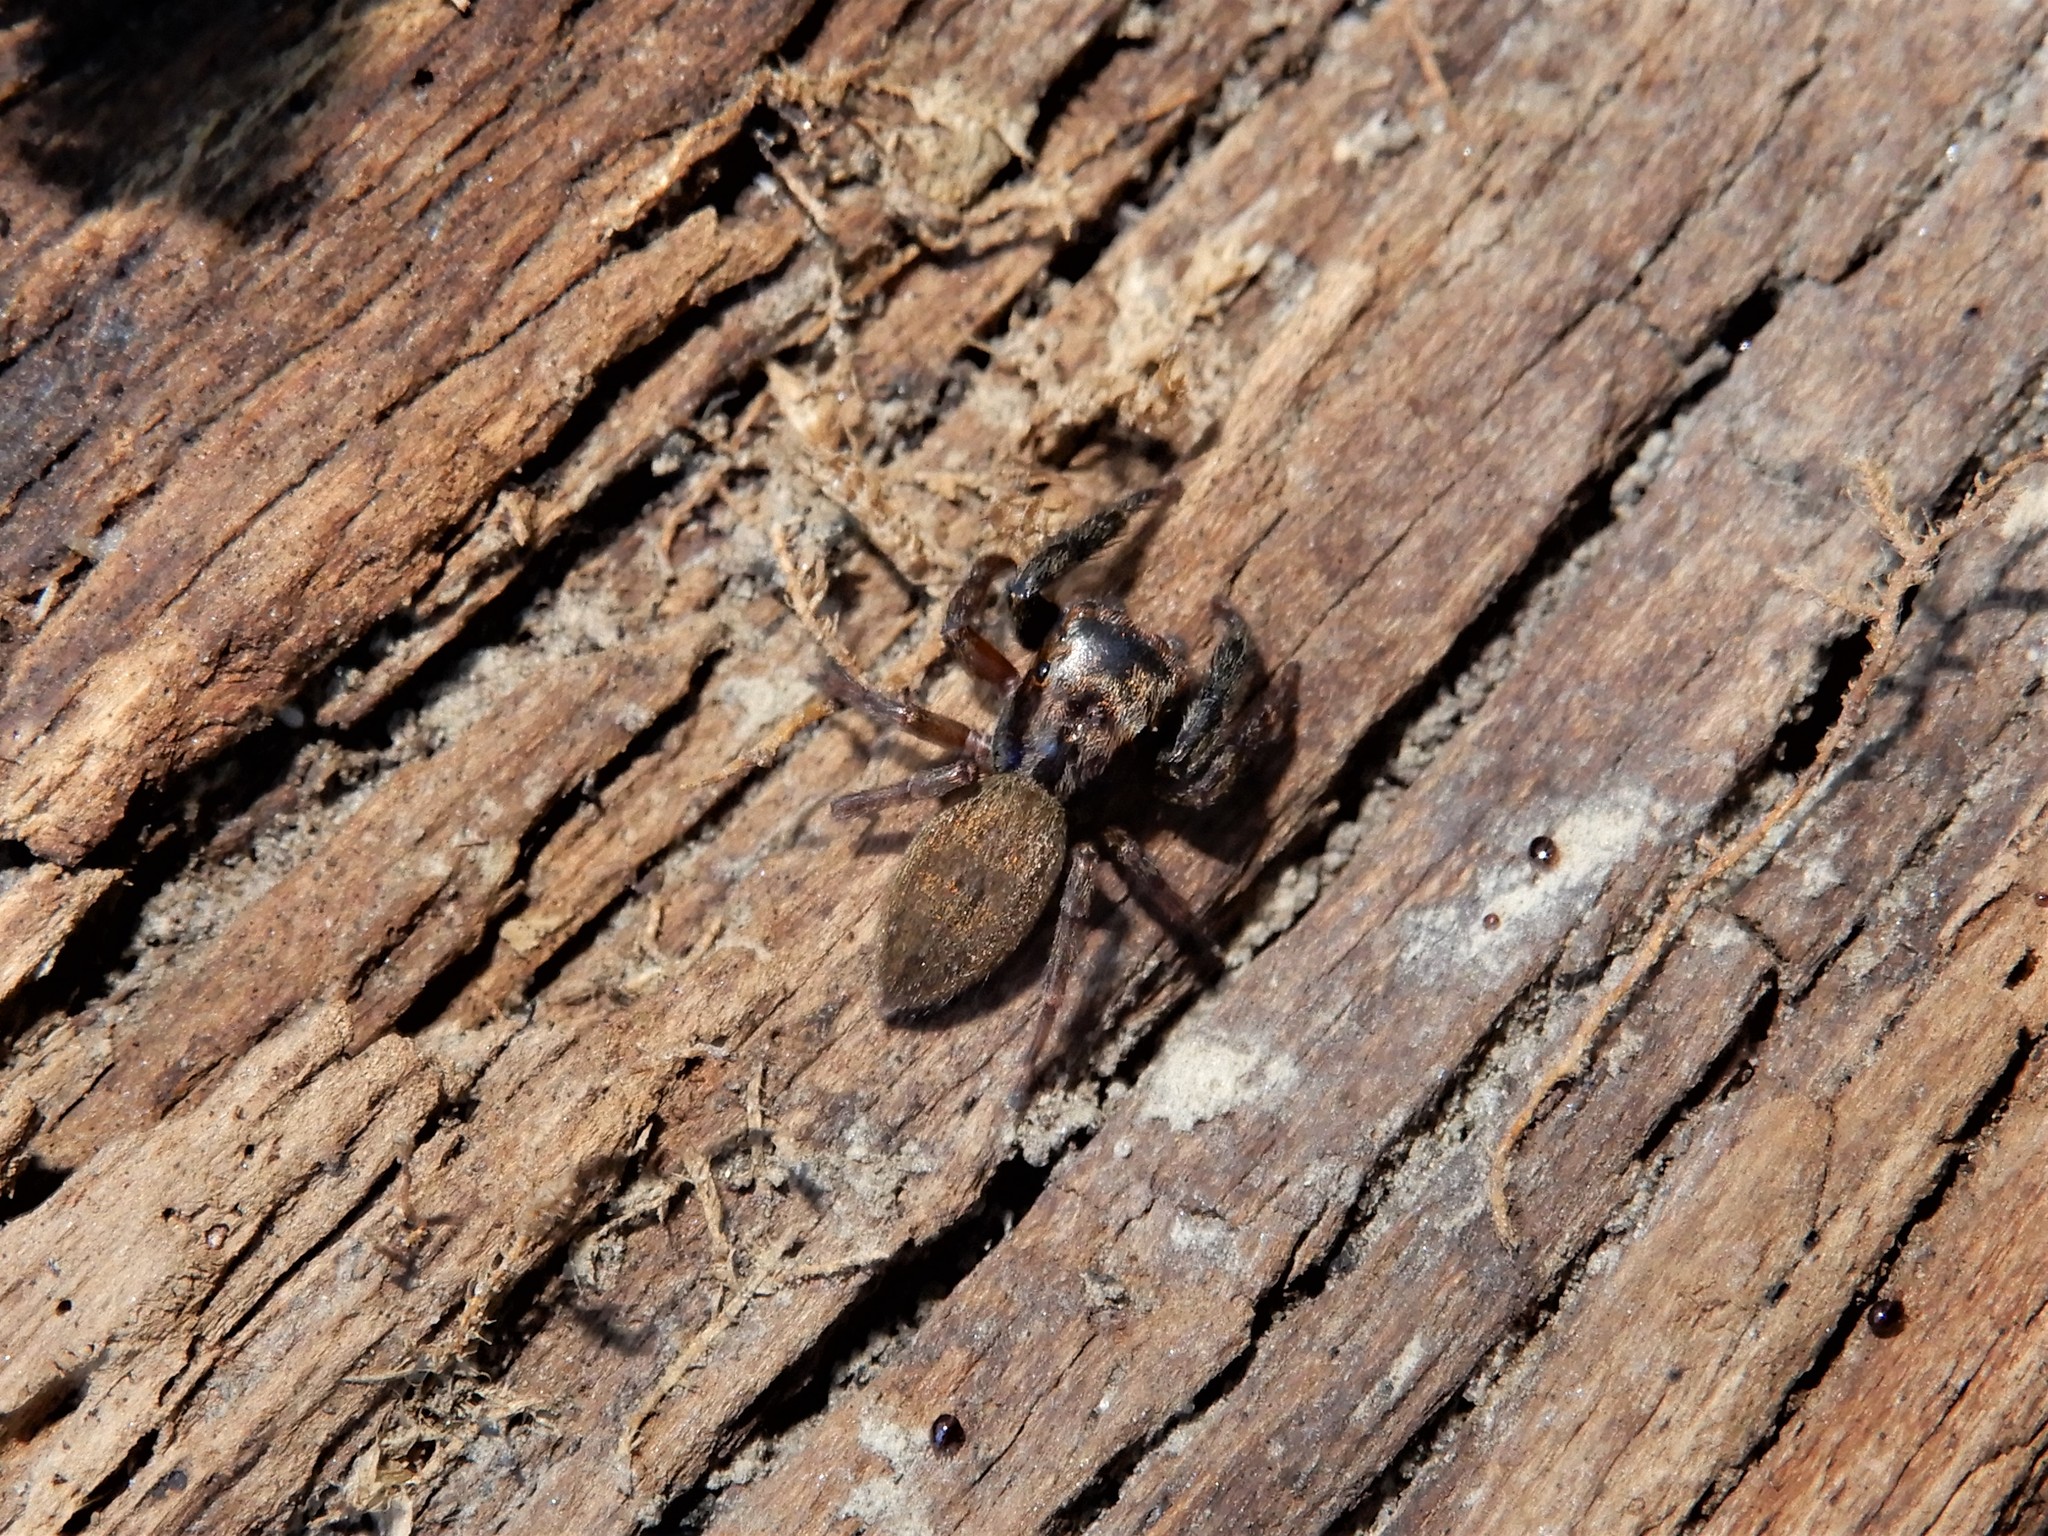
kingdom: Animalia
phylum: Arthropoda
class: Arachnida
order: Araneae
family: Salticidae
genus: Trite
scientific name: Trite auricoma
